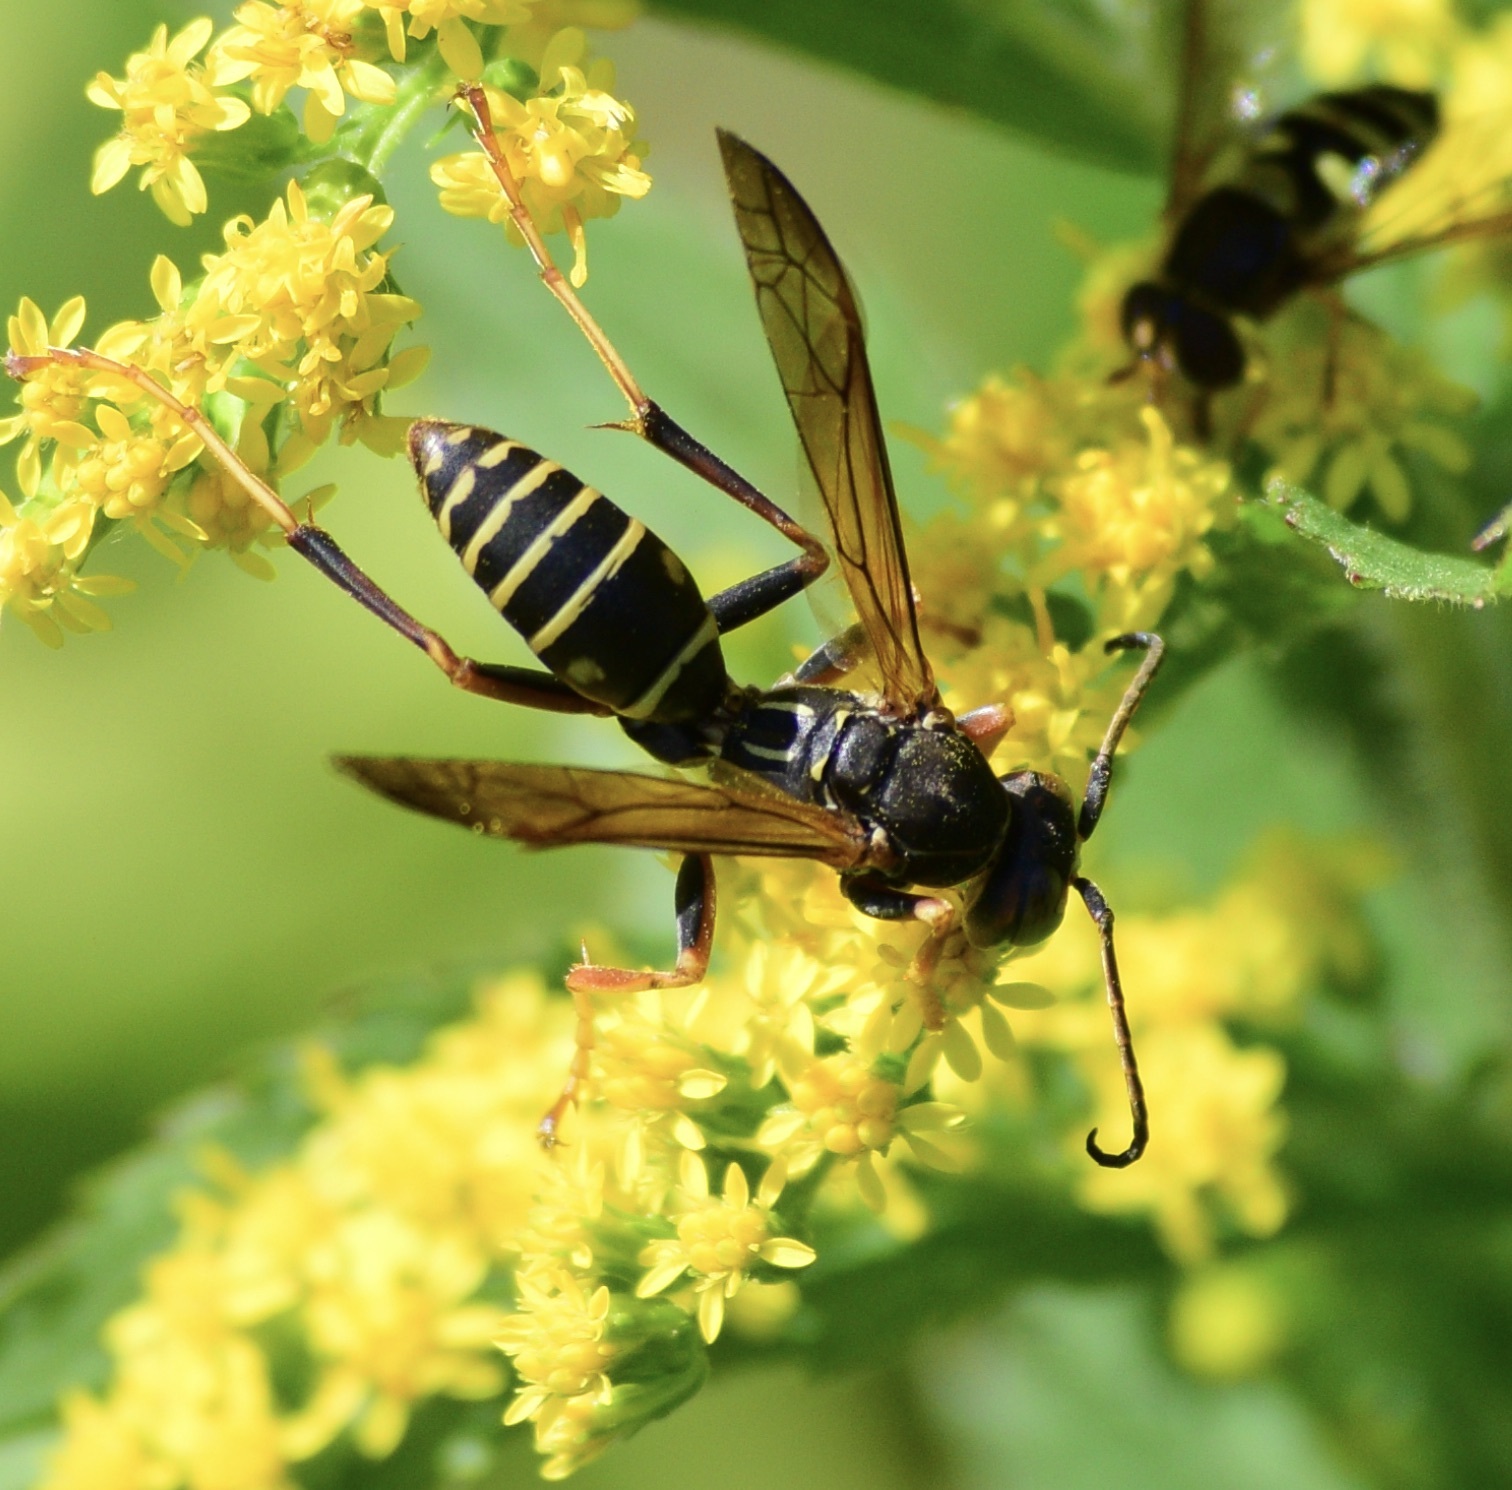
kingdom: Animalia
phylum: Arthropoda
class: Insecta
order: Hymenoptera
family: Eumenidae
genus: Polistes
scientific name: Polistes fuscatus
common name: Dark paper wasp
